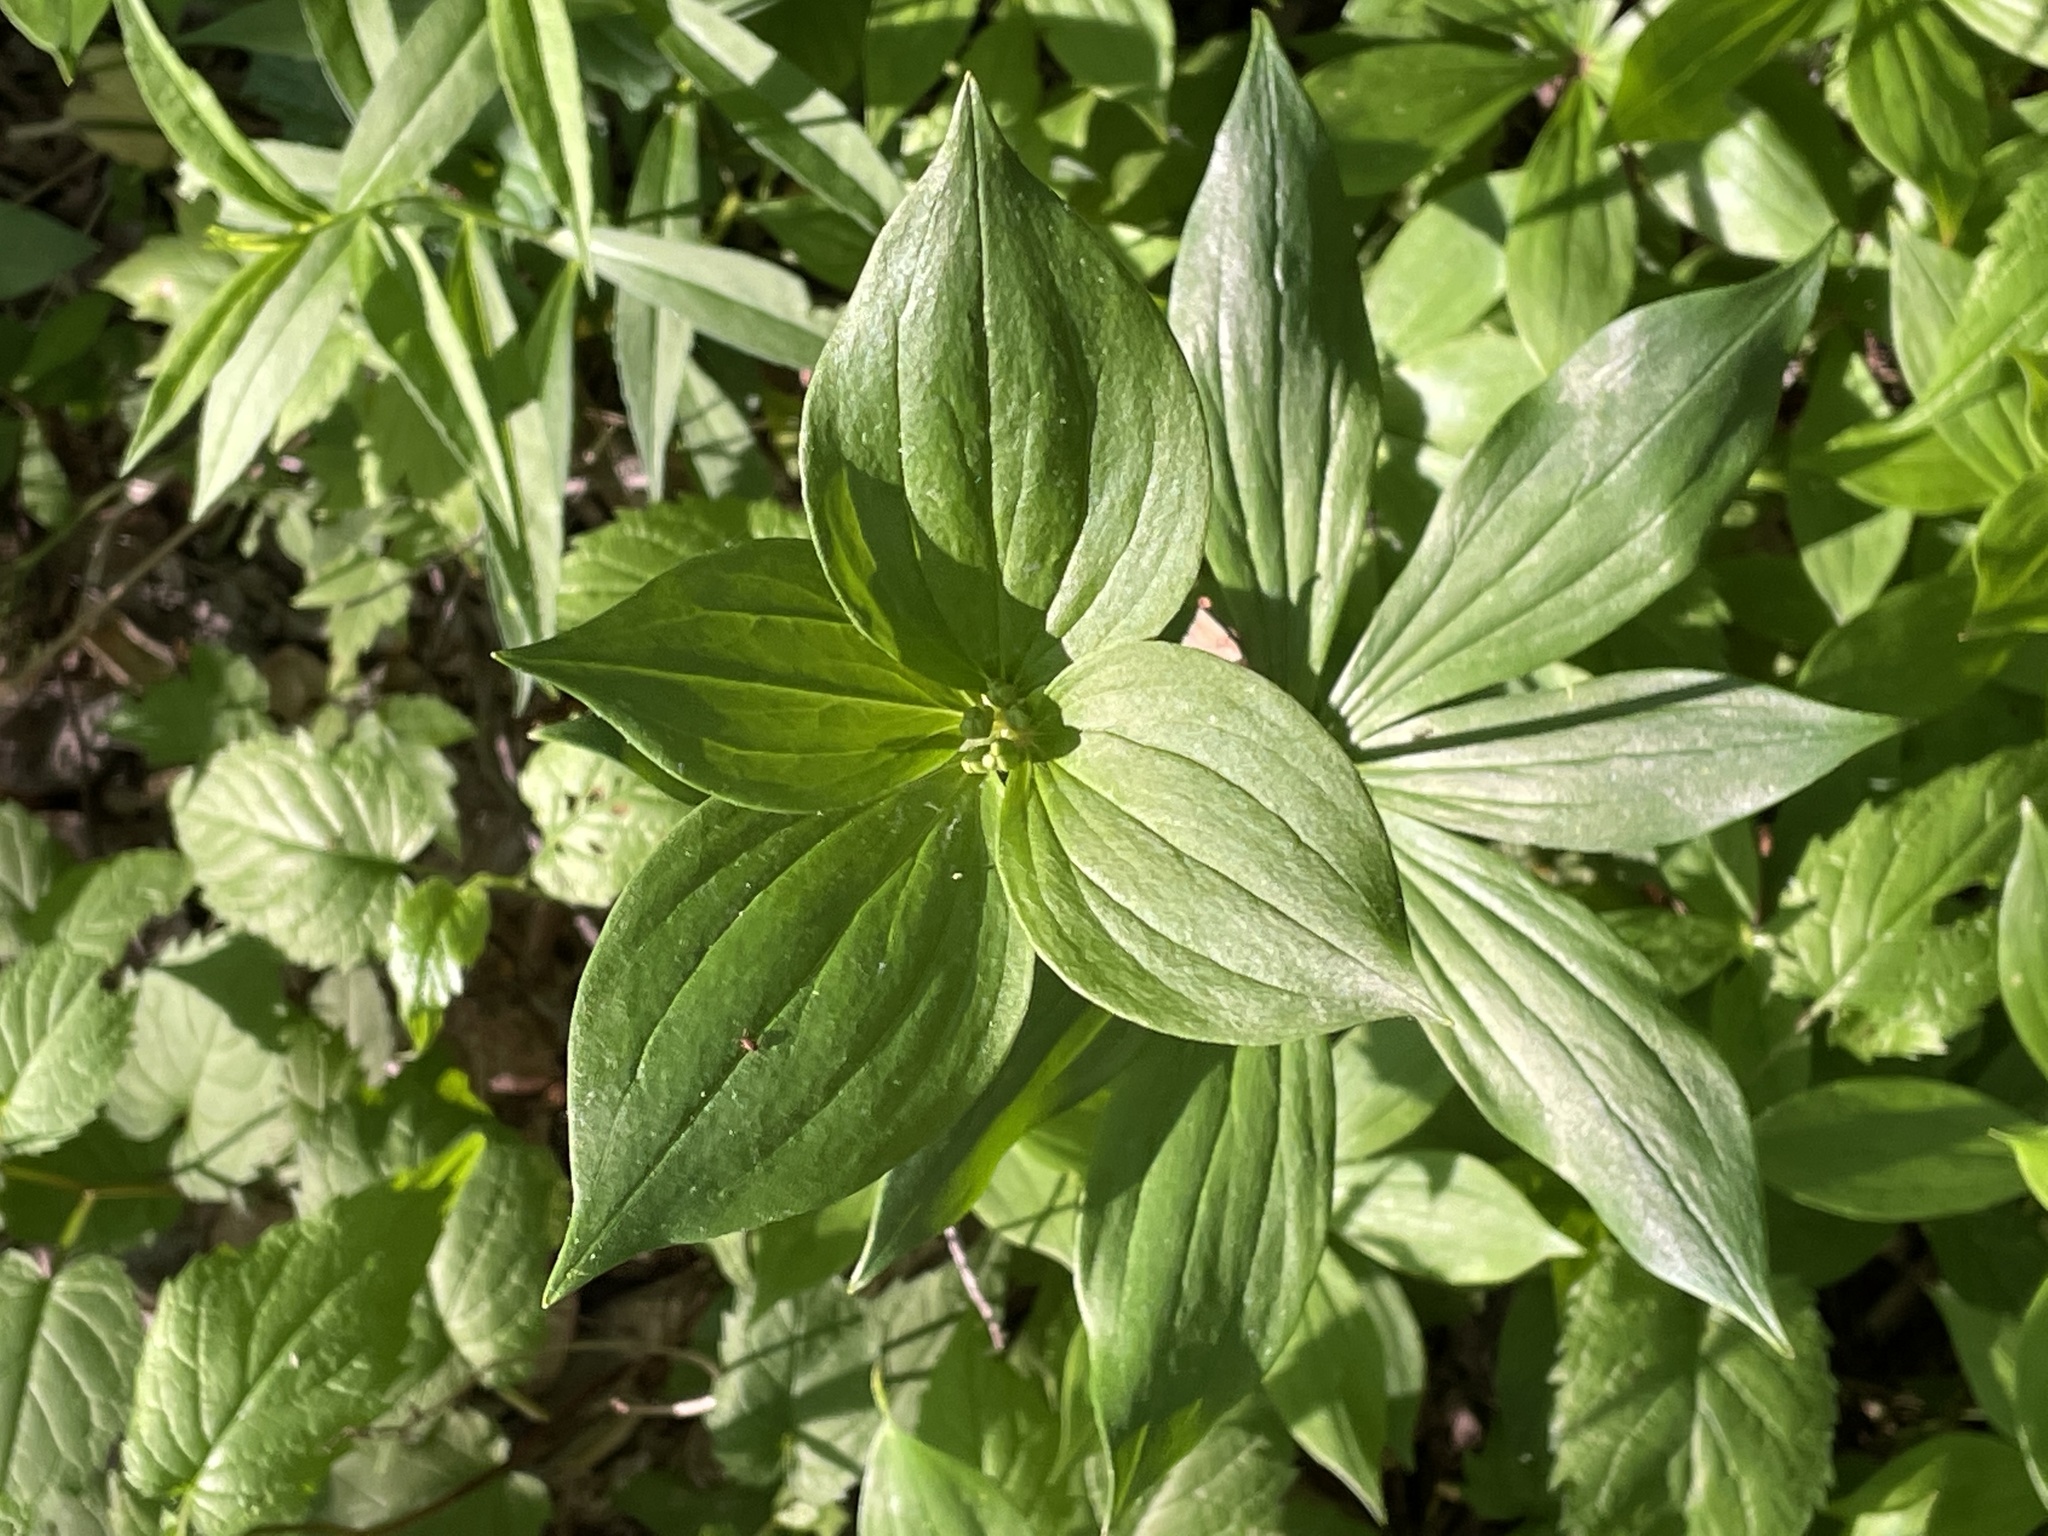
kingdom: Plantae
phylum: Tracheophyta
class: Liliopsida
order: Liliales
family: Liliaceae
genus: Medeola
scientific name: Medeola virginiana
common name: Indian cucumber-root
